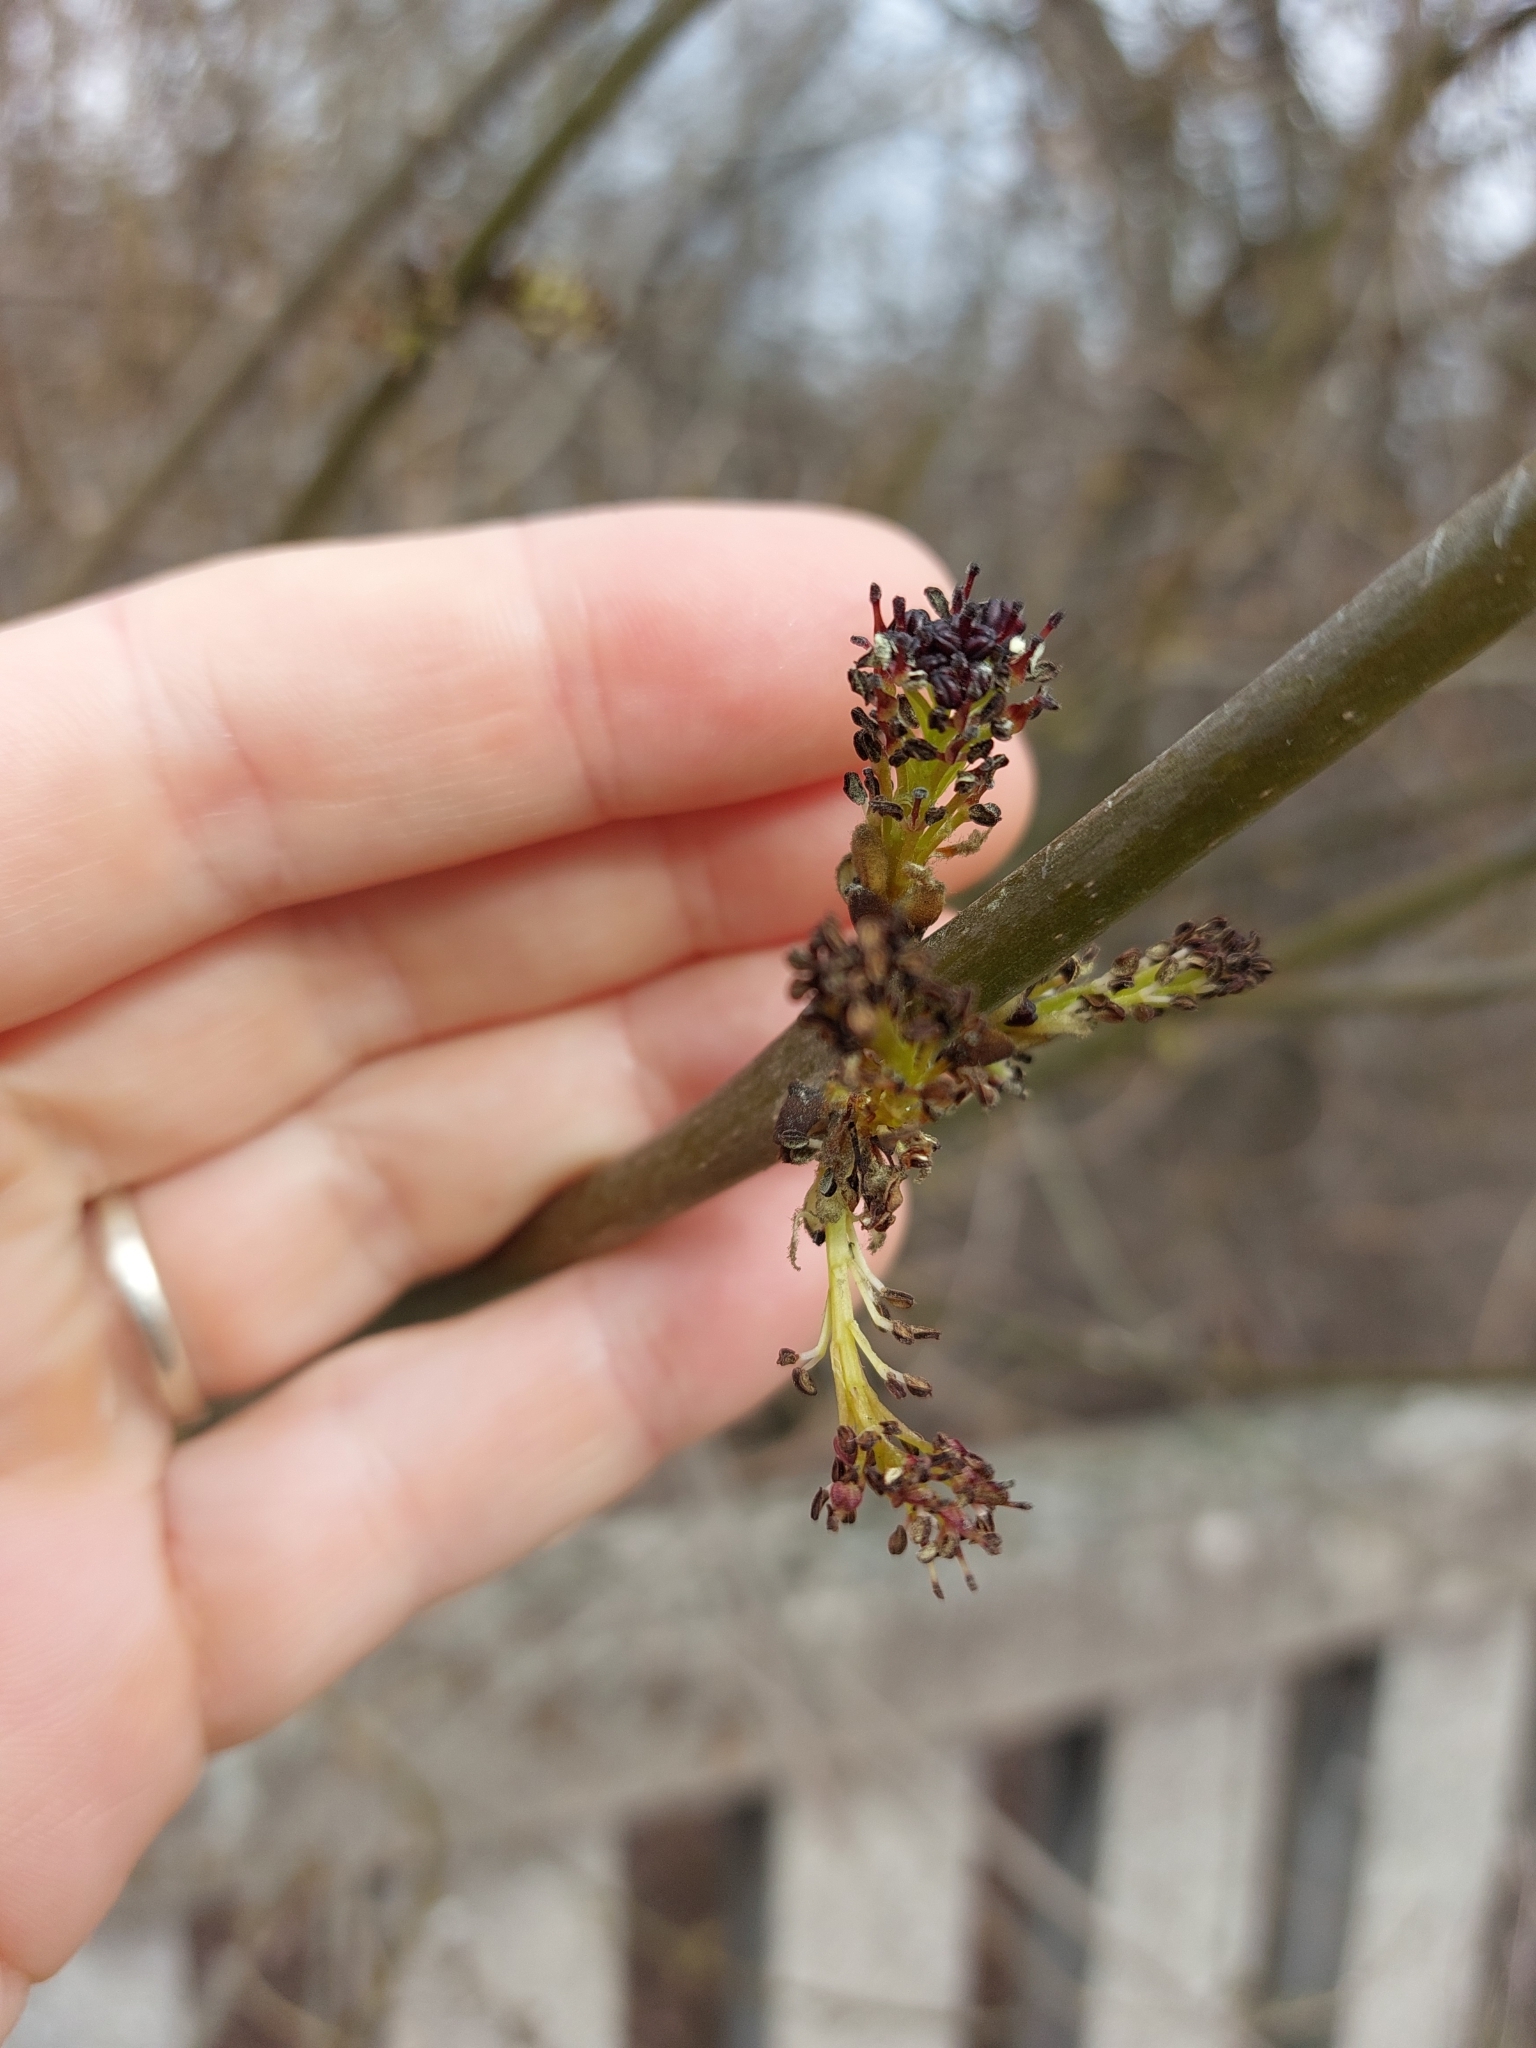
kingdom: Plantae
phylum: Tracheophyta
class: Magnoliopsida
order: Lamiales
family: Oleaceae
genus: Fraxinus
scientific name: Fraxinus excelsior
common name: European ash
